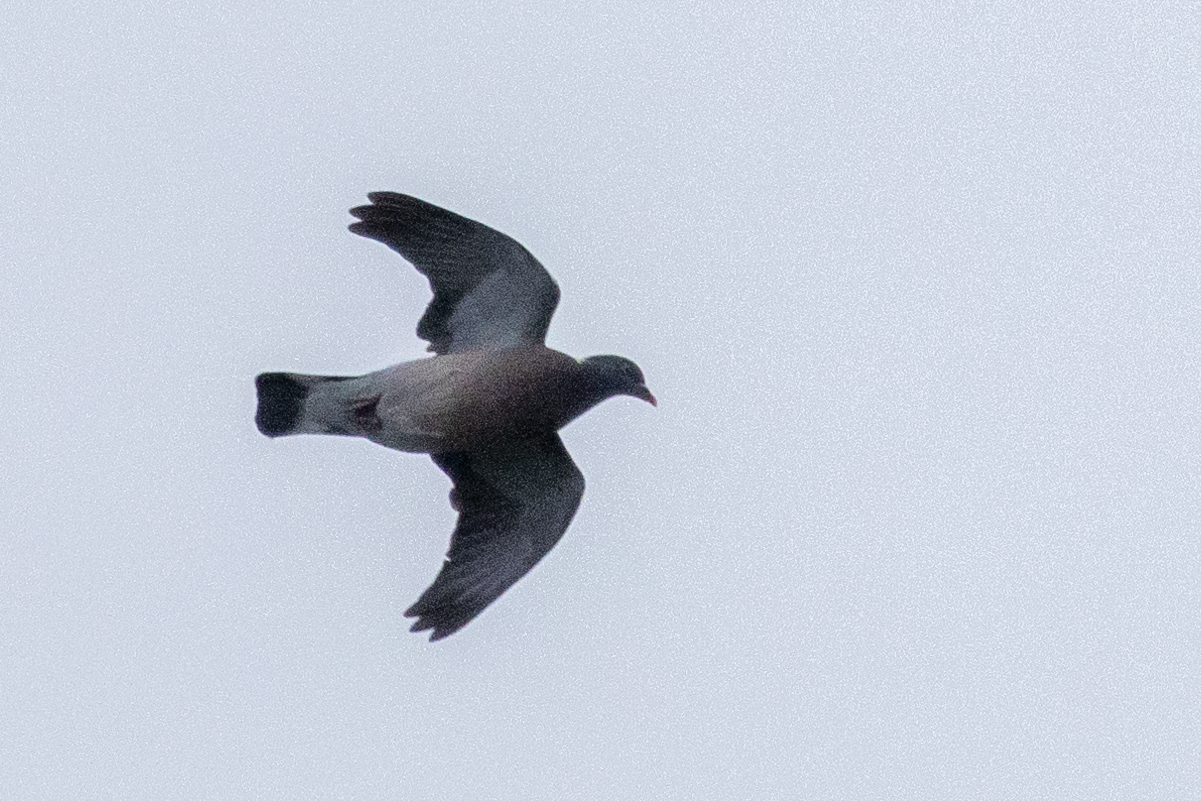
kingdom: Animalia
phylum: Chordata
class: Aves
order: Columbiformes
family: Columbidae
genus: Columba
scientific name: Columba palumbus
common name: Common wood pigeon
